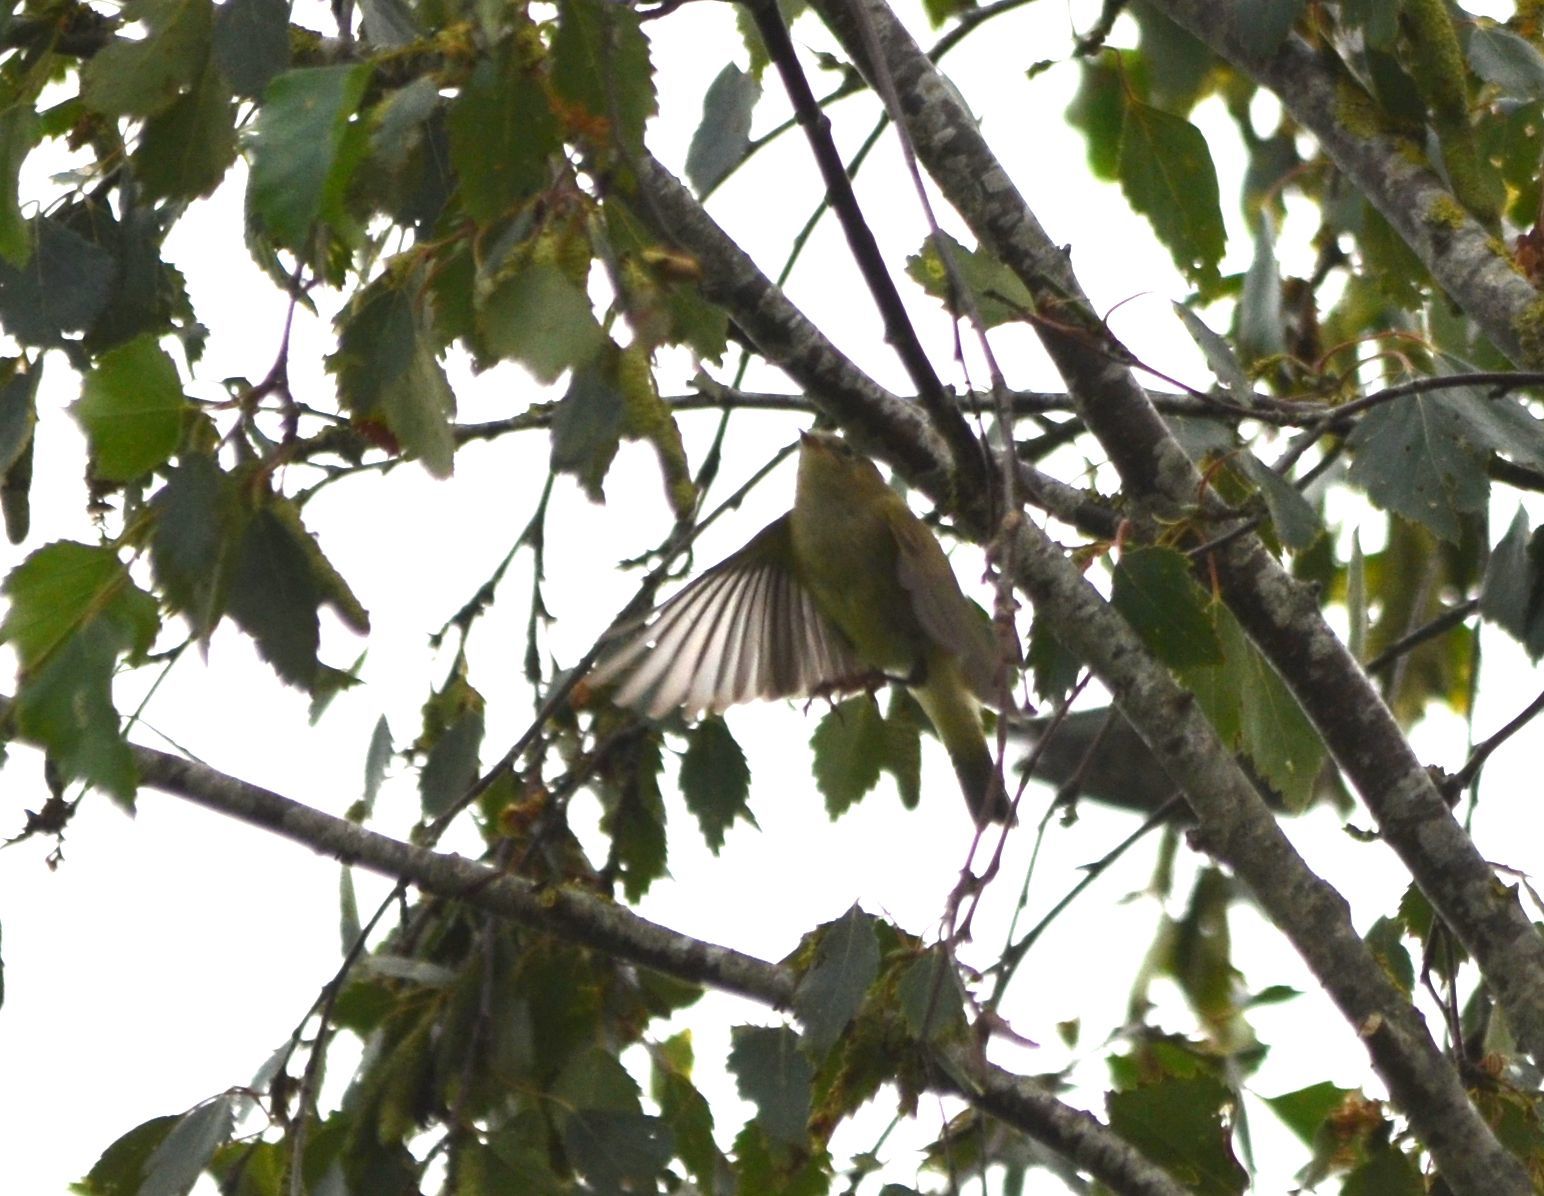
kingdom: Animalia
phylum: Chordata
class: Aves
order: Passeriformes
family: Phylloscopidae
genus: Phylloscopus
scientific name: Phylloscopus collybita
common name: Common chiffchaff
